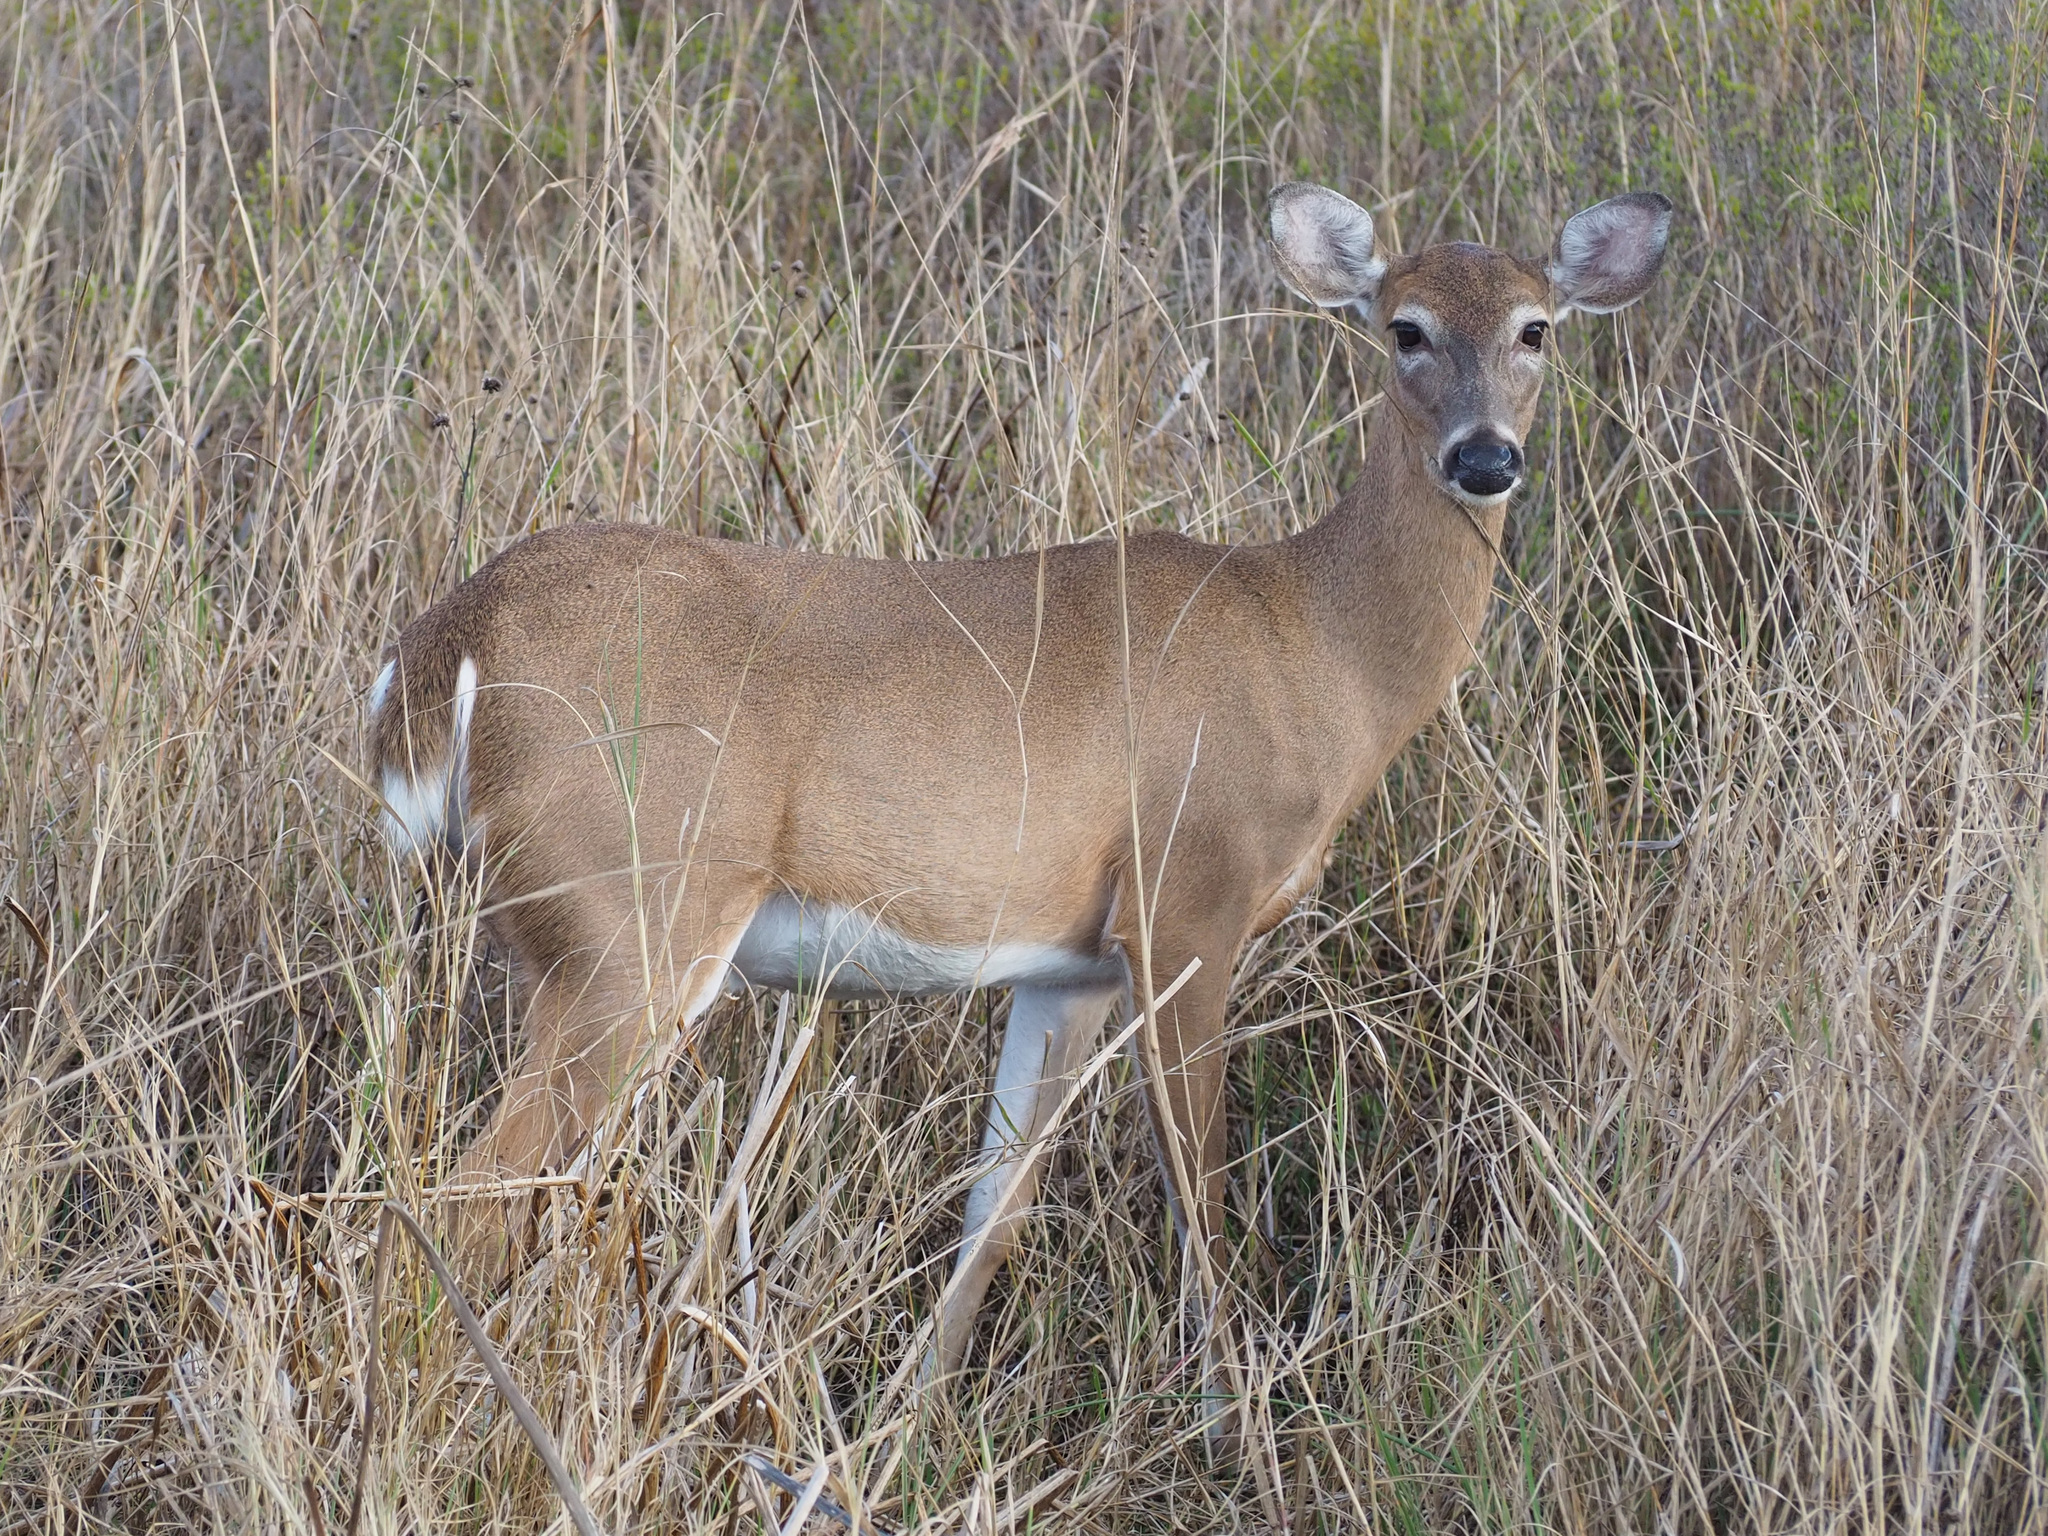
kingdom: Animalia
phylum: Chordata
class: Mammalia
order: Artiodactyla
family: Cervidae
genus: Odocoileus
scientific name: Odocoileus virginianus
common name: White-tailed deer
